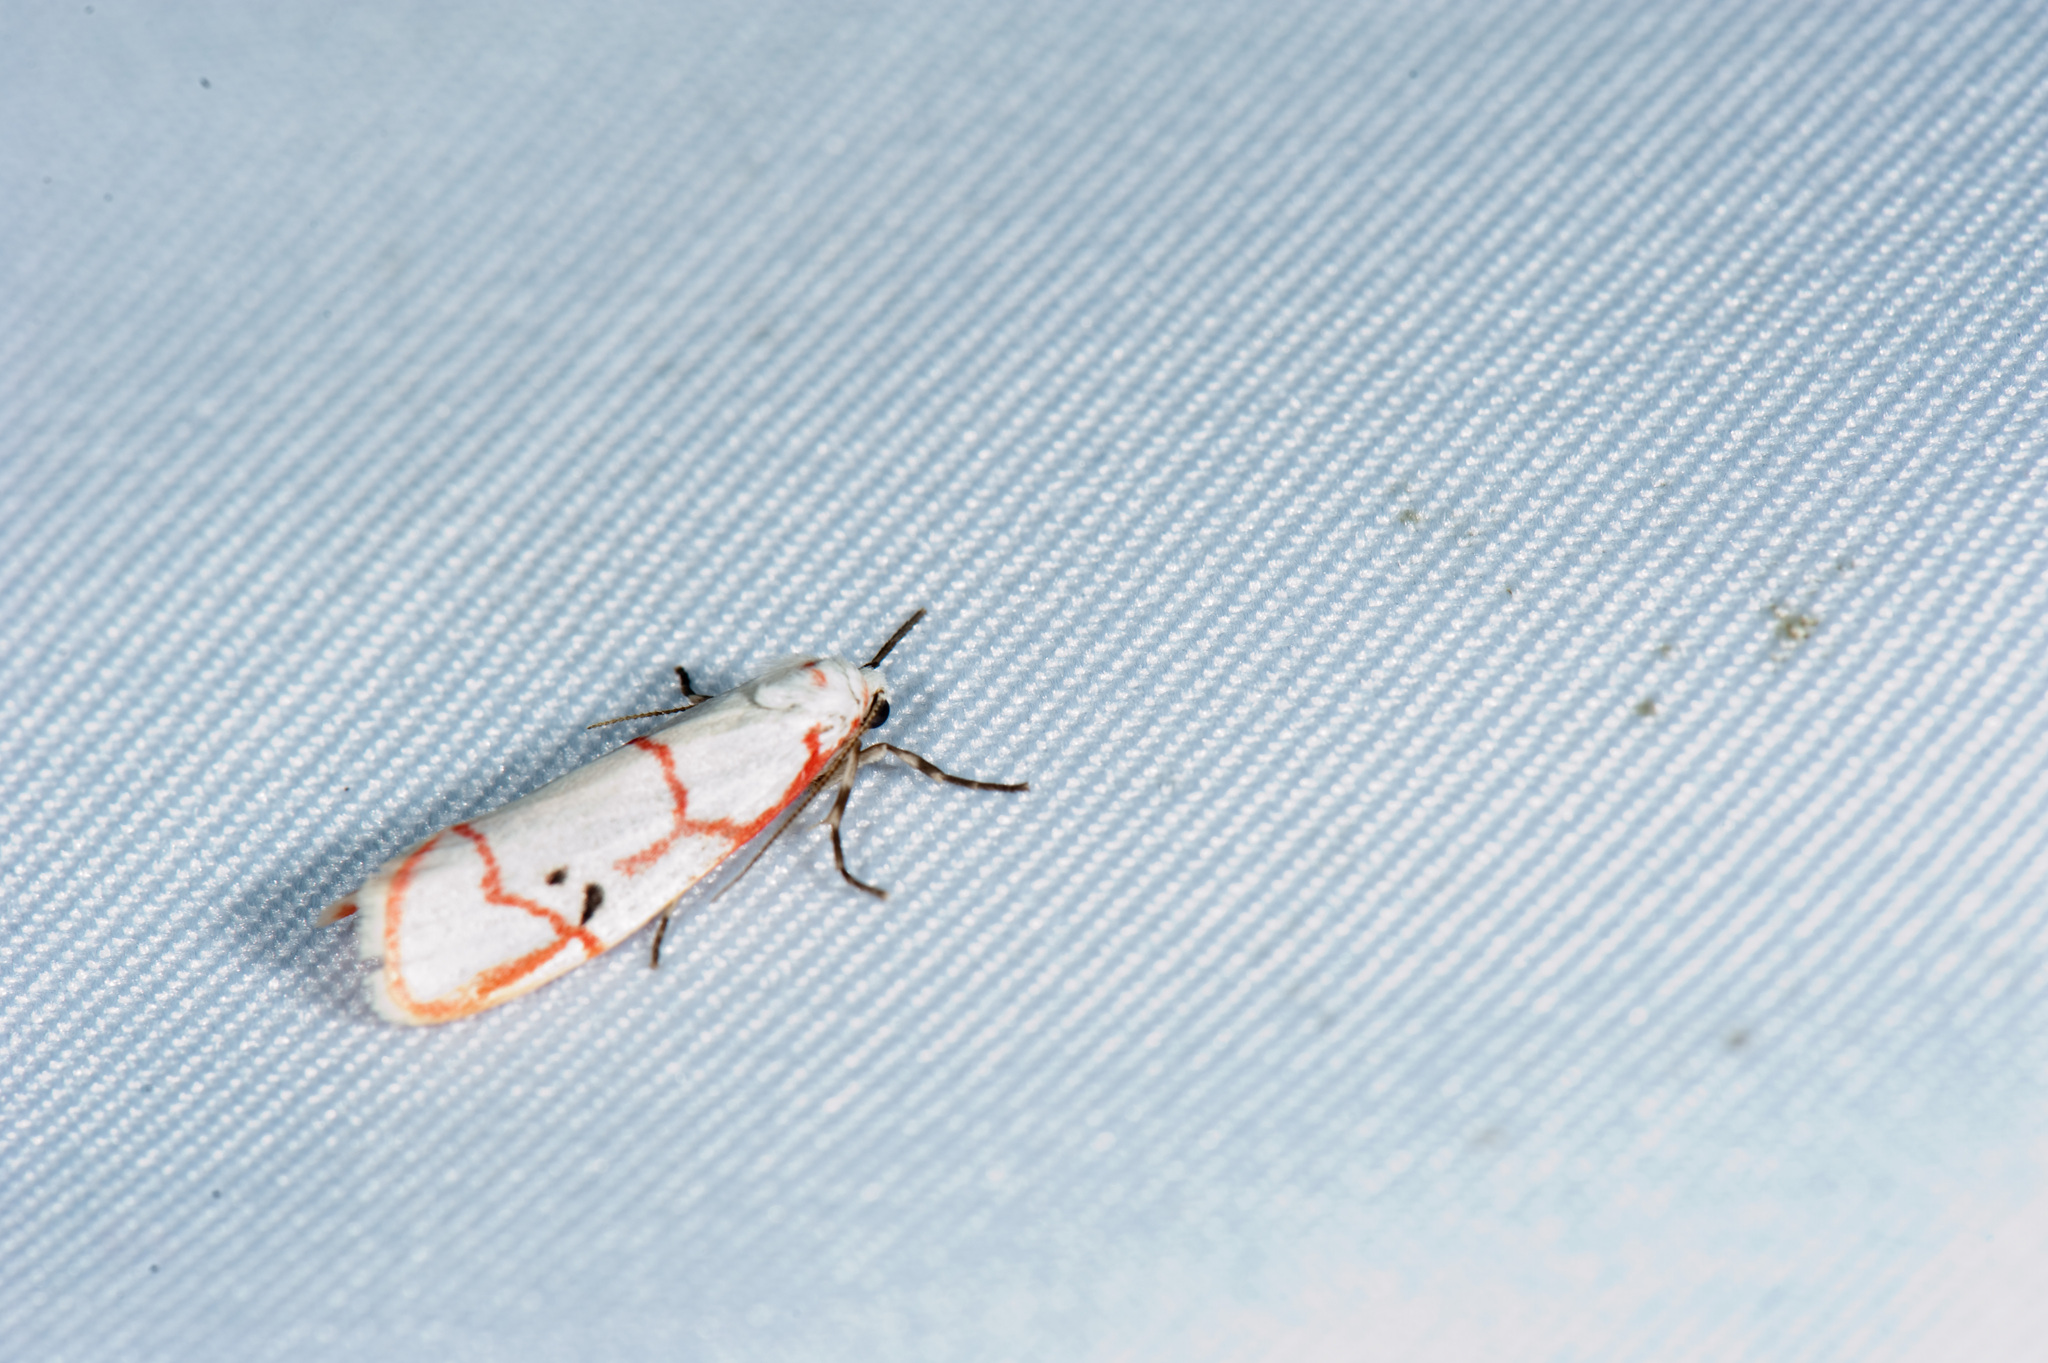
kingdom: Animalia
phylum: Arthropoda
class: Insecta
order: Lepidoptera
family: Erebidae
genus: Cyana
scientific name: Cyana sanguinea
